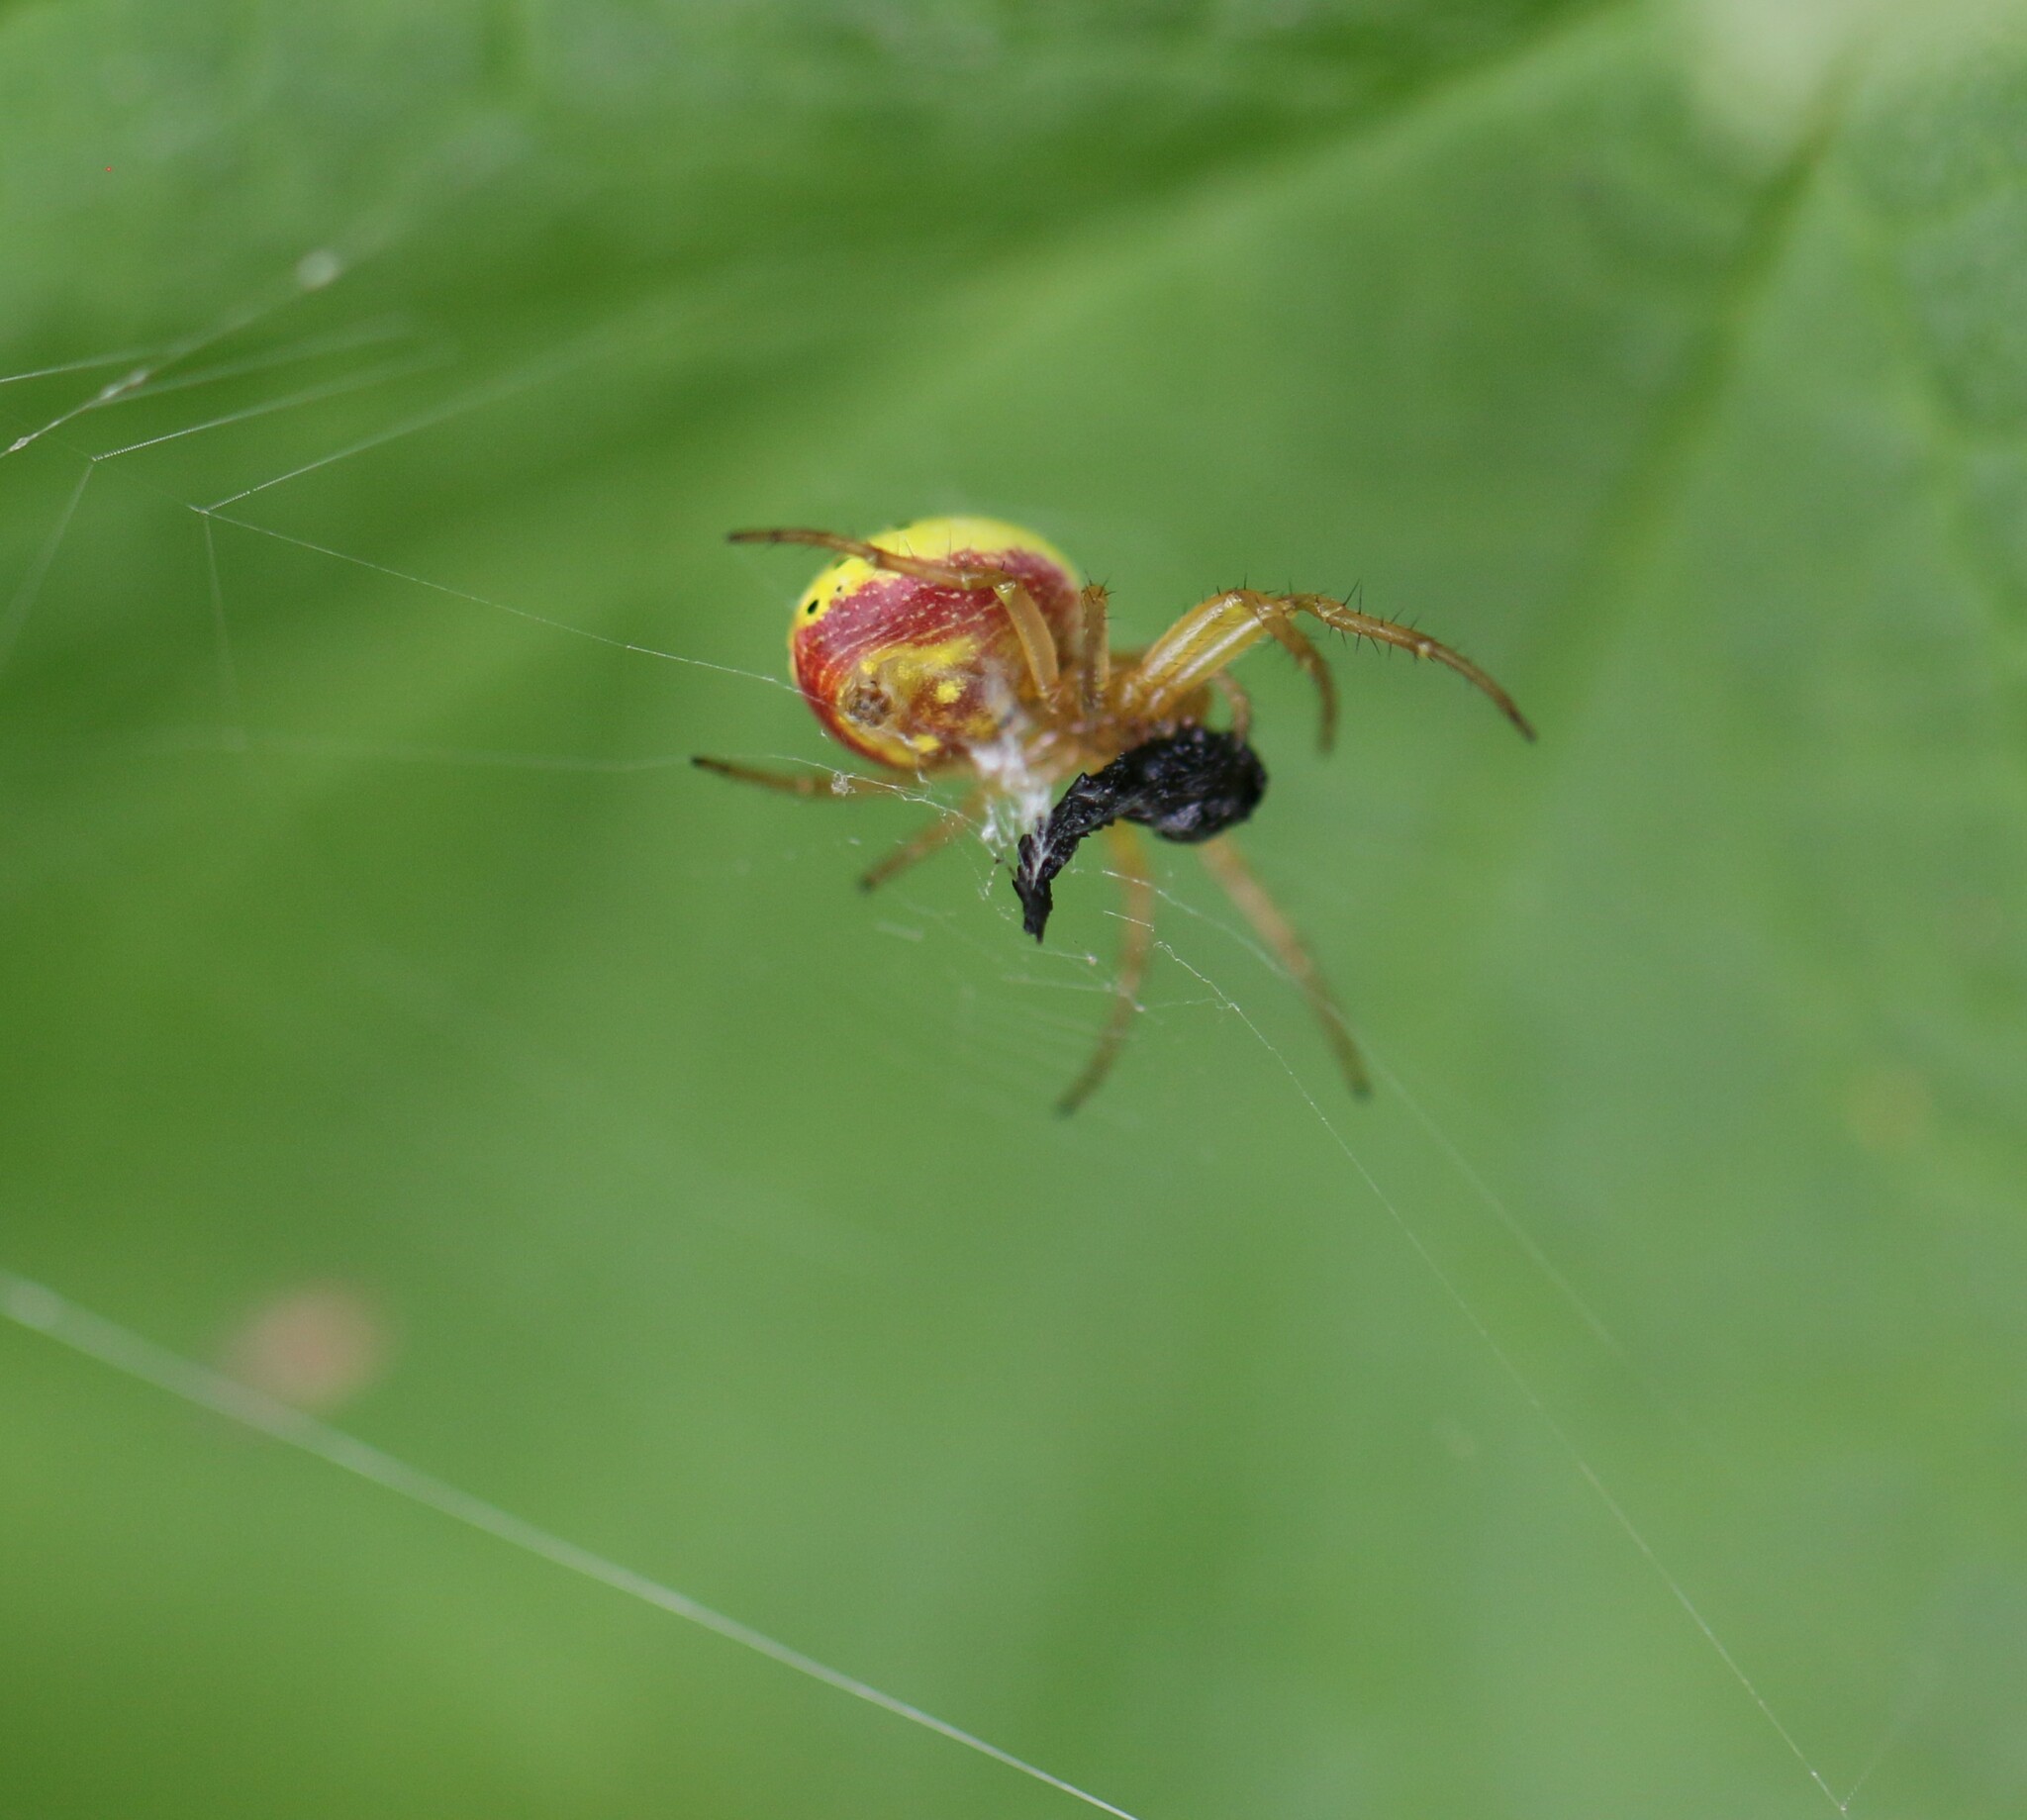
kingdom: Animalia
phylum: Arthropoda
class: Arachnida
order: Araneae
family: Araneidae
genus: Araniella
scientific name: Araniella displicata
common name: Sixspotted orb weaver
